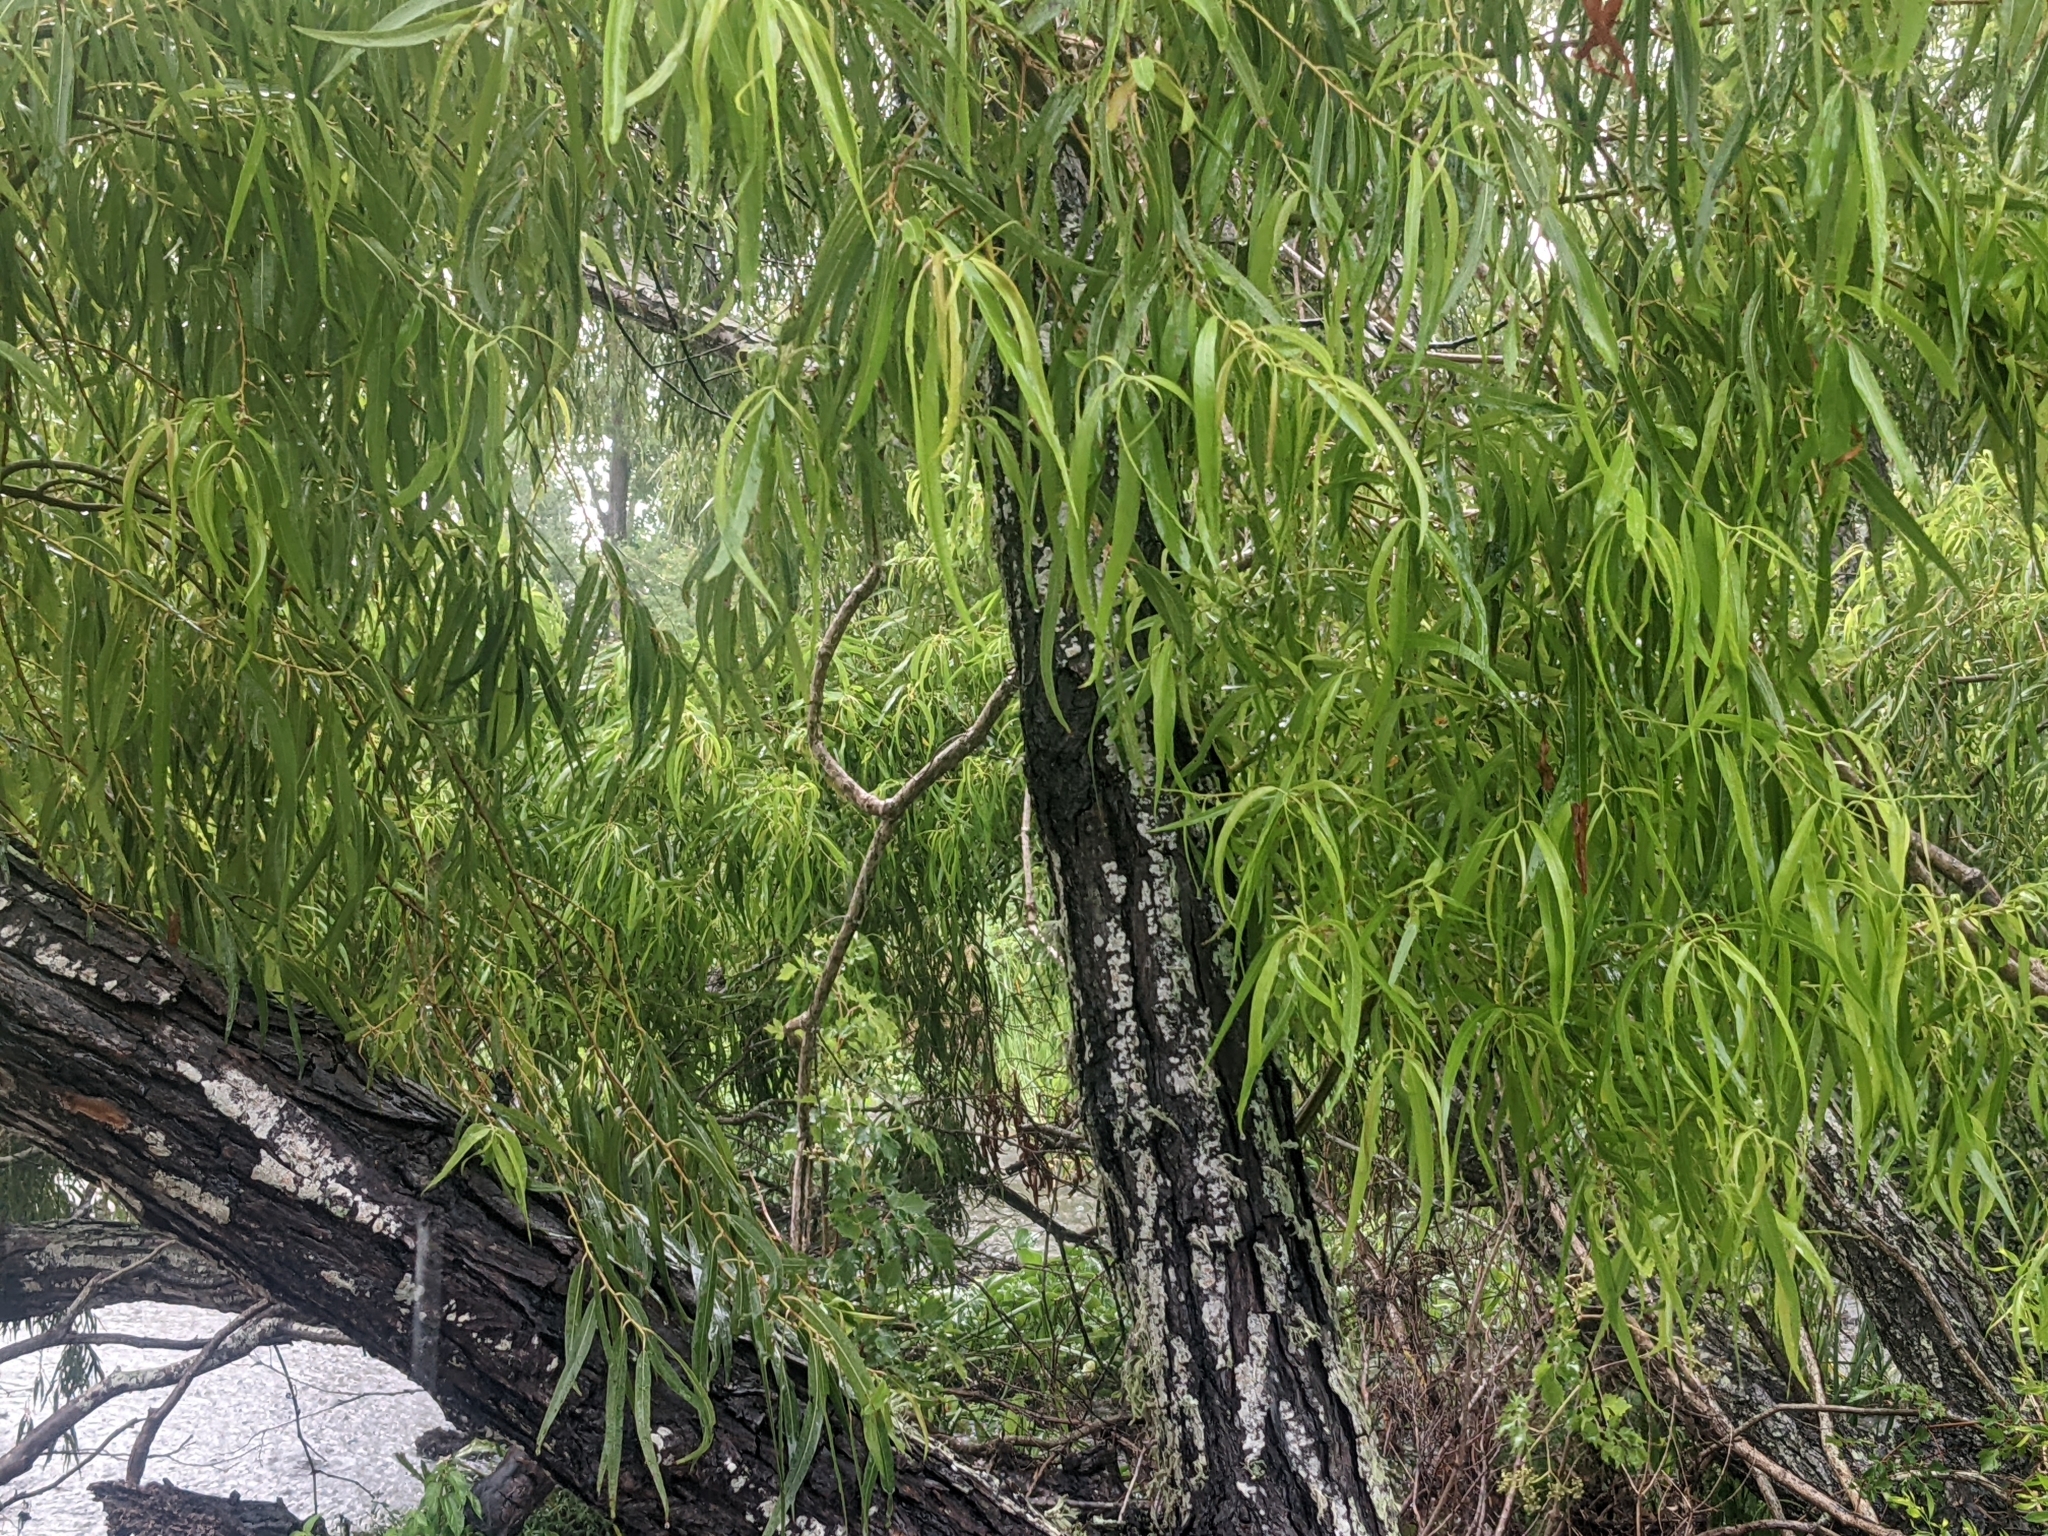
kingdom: Plantae
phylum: Tracheophyta
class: Magnoliopsida
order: Malpighiales
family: Salicaceae
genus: Salix
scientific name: Salix nigra
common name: Black willow
